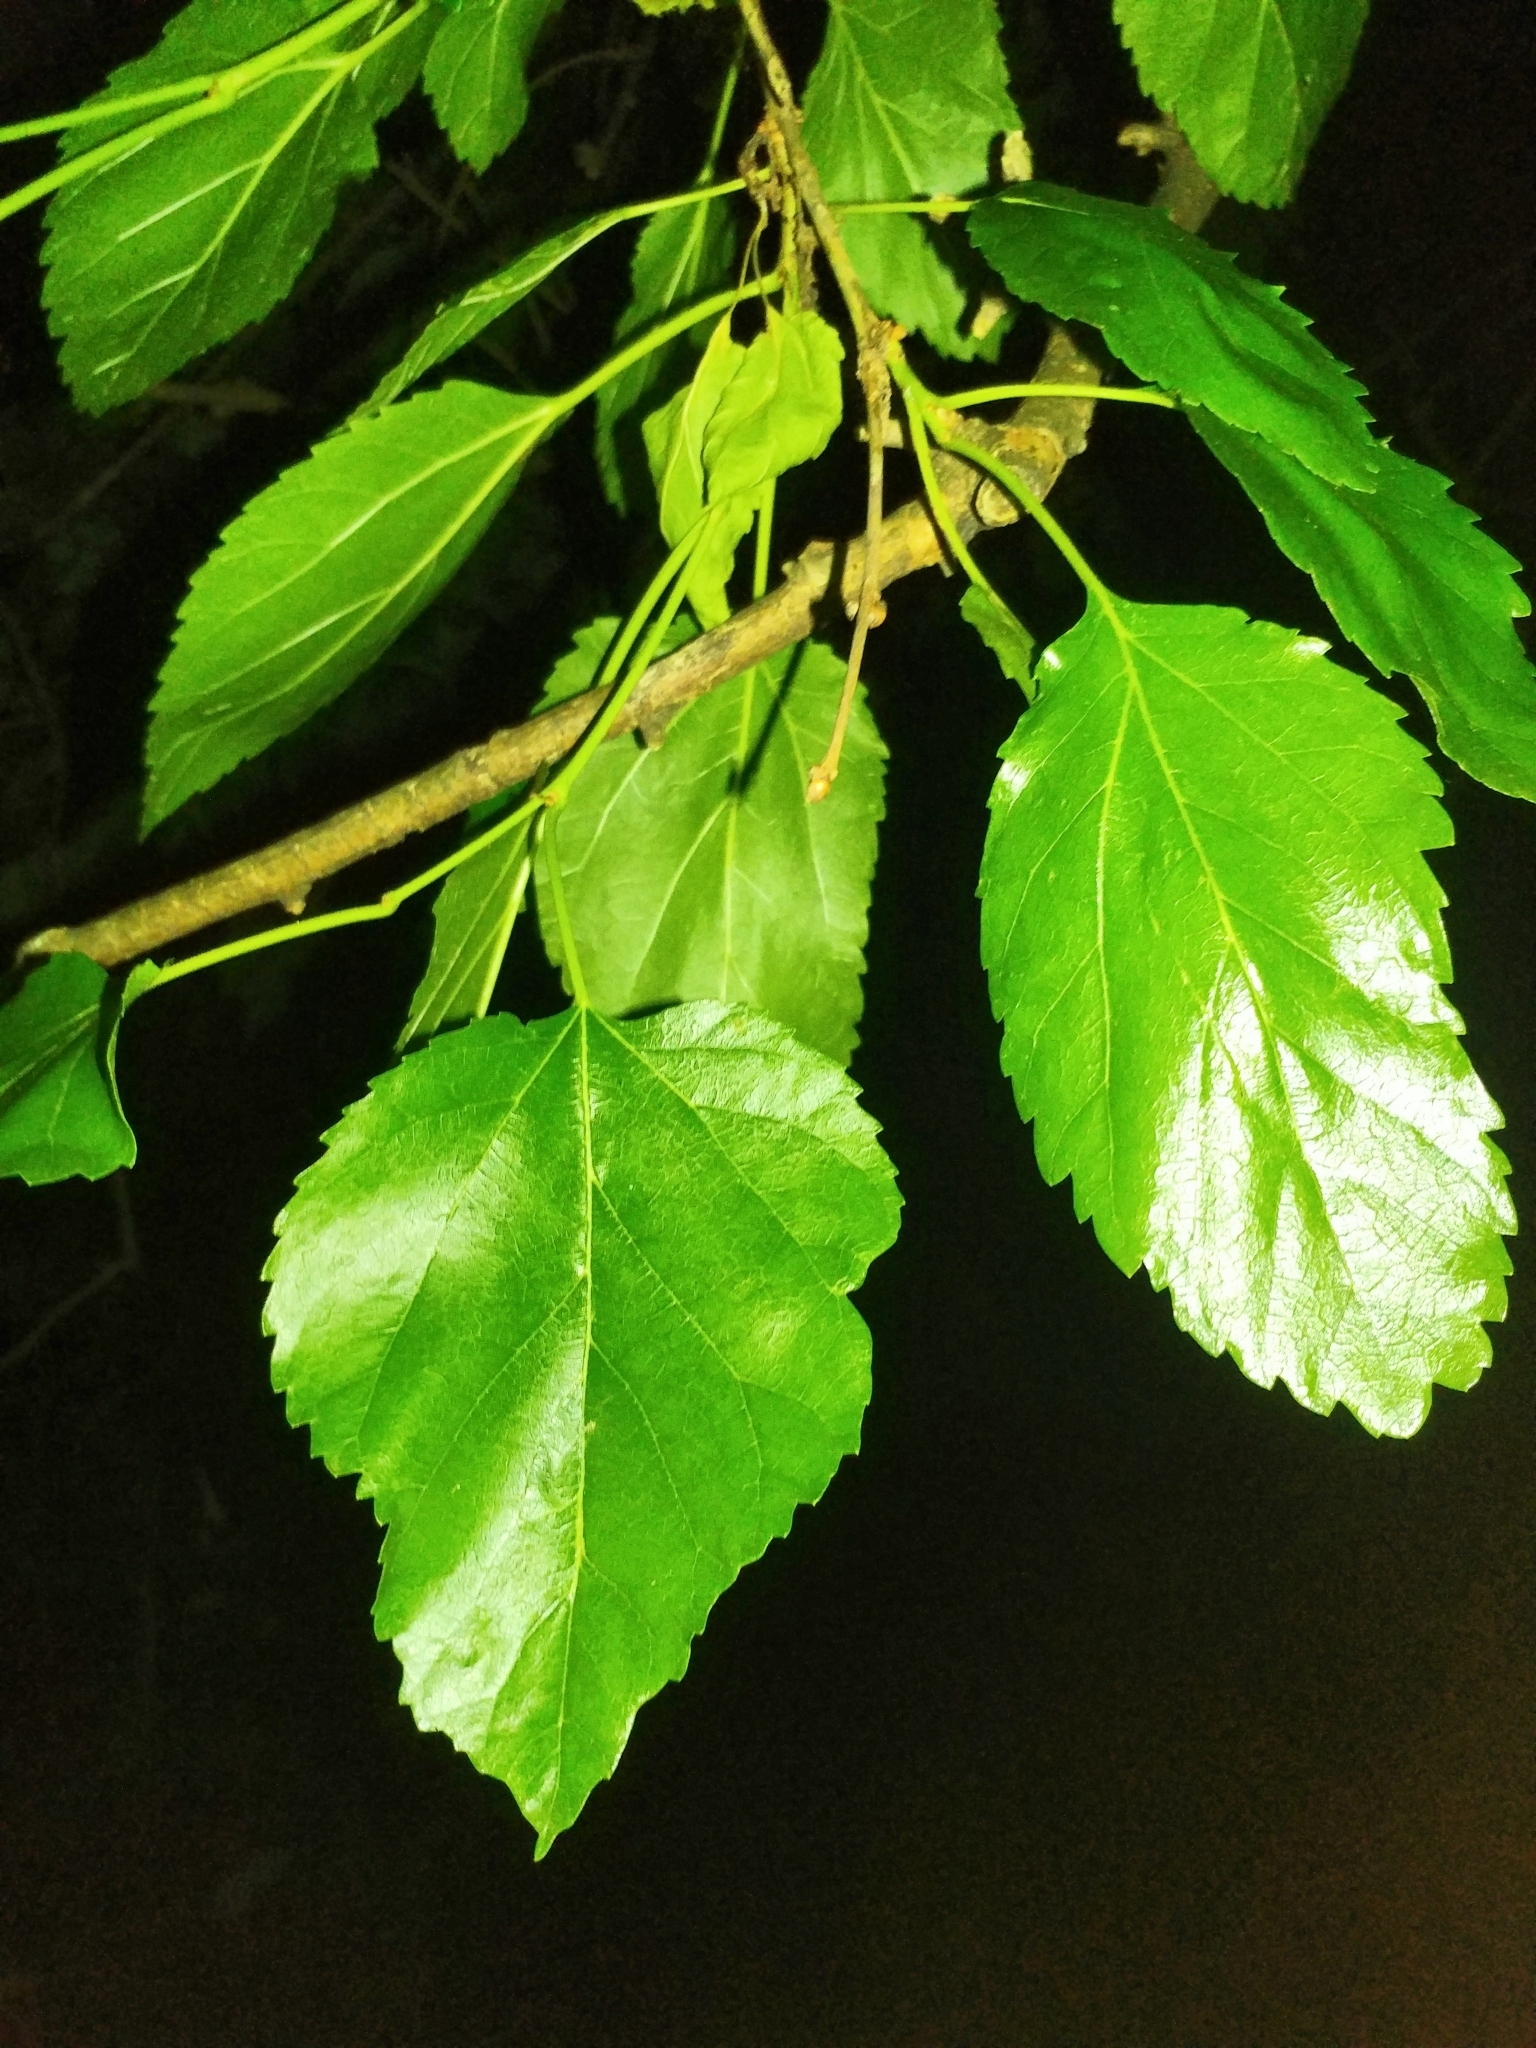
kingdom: Plantae
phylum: Tracheophyta
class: Magnoliopsida
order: Rosales
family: Moraceae
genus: Morus
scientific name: Morus alba
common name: White mulberry
